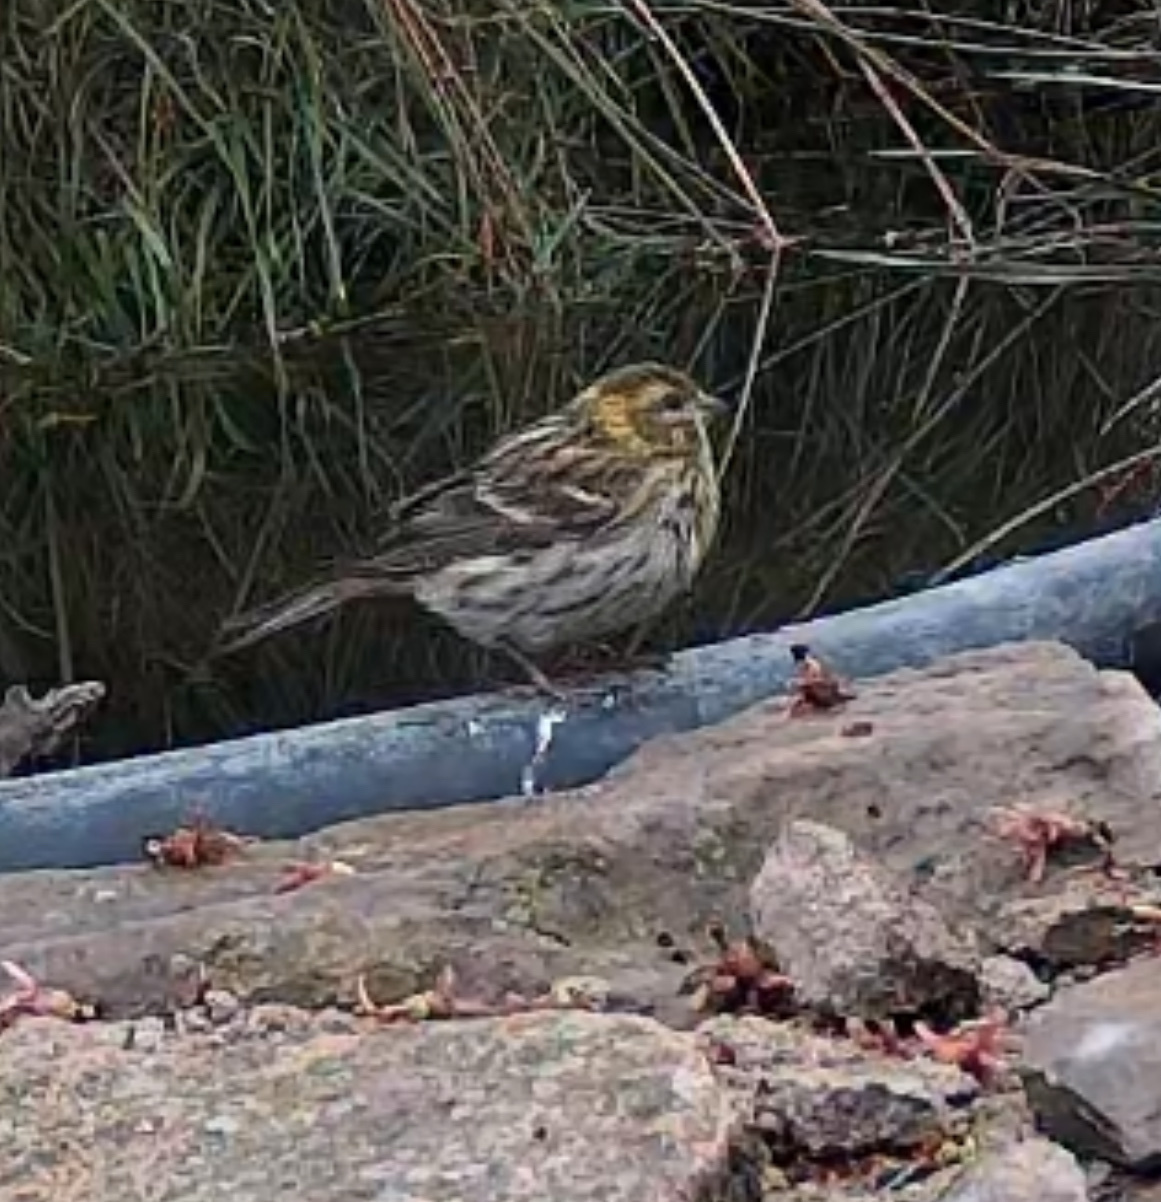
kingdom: Animalia
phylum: Chordata
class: Aves
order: Passeriformes
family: Fringillidae
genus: Serinus
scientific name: Serinus serinus
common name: European serin
